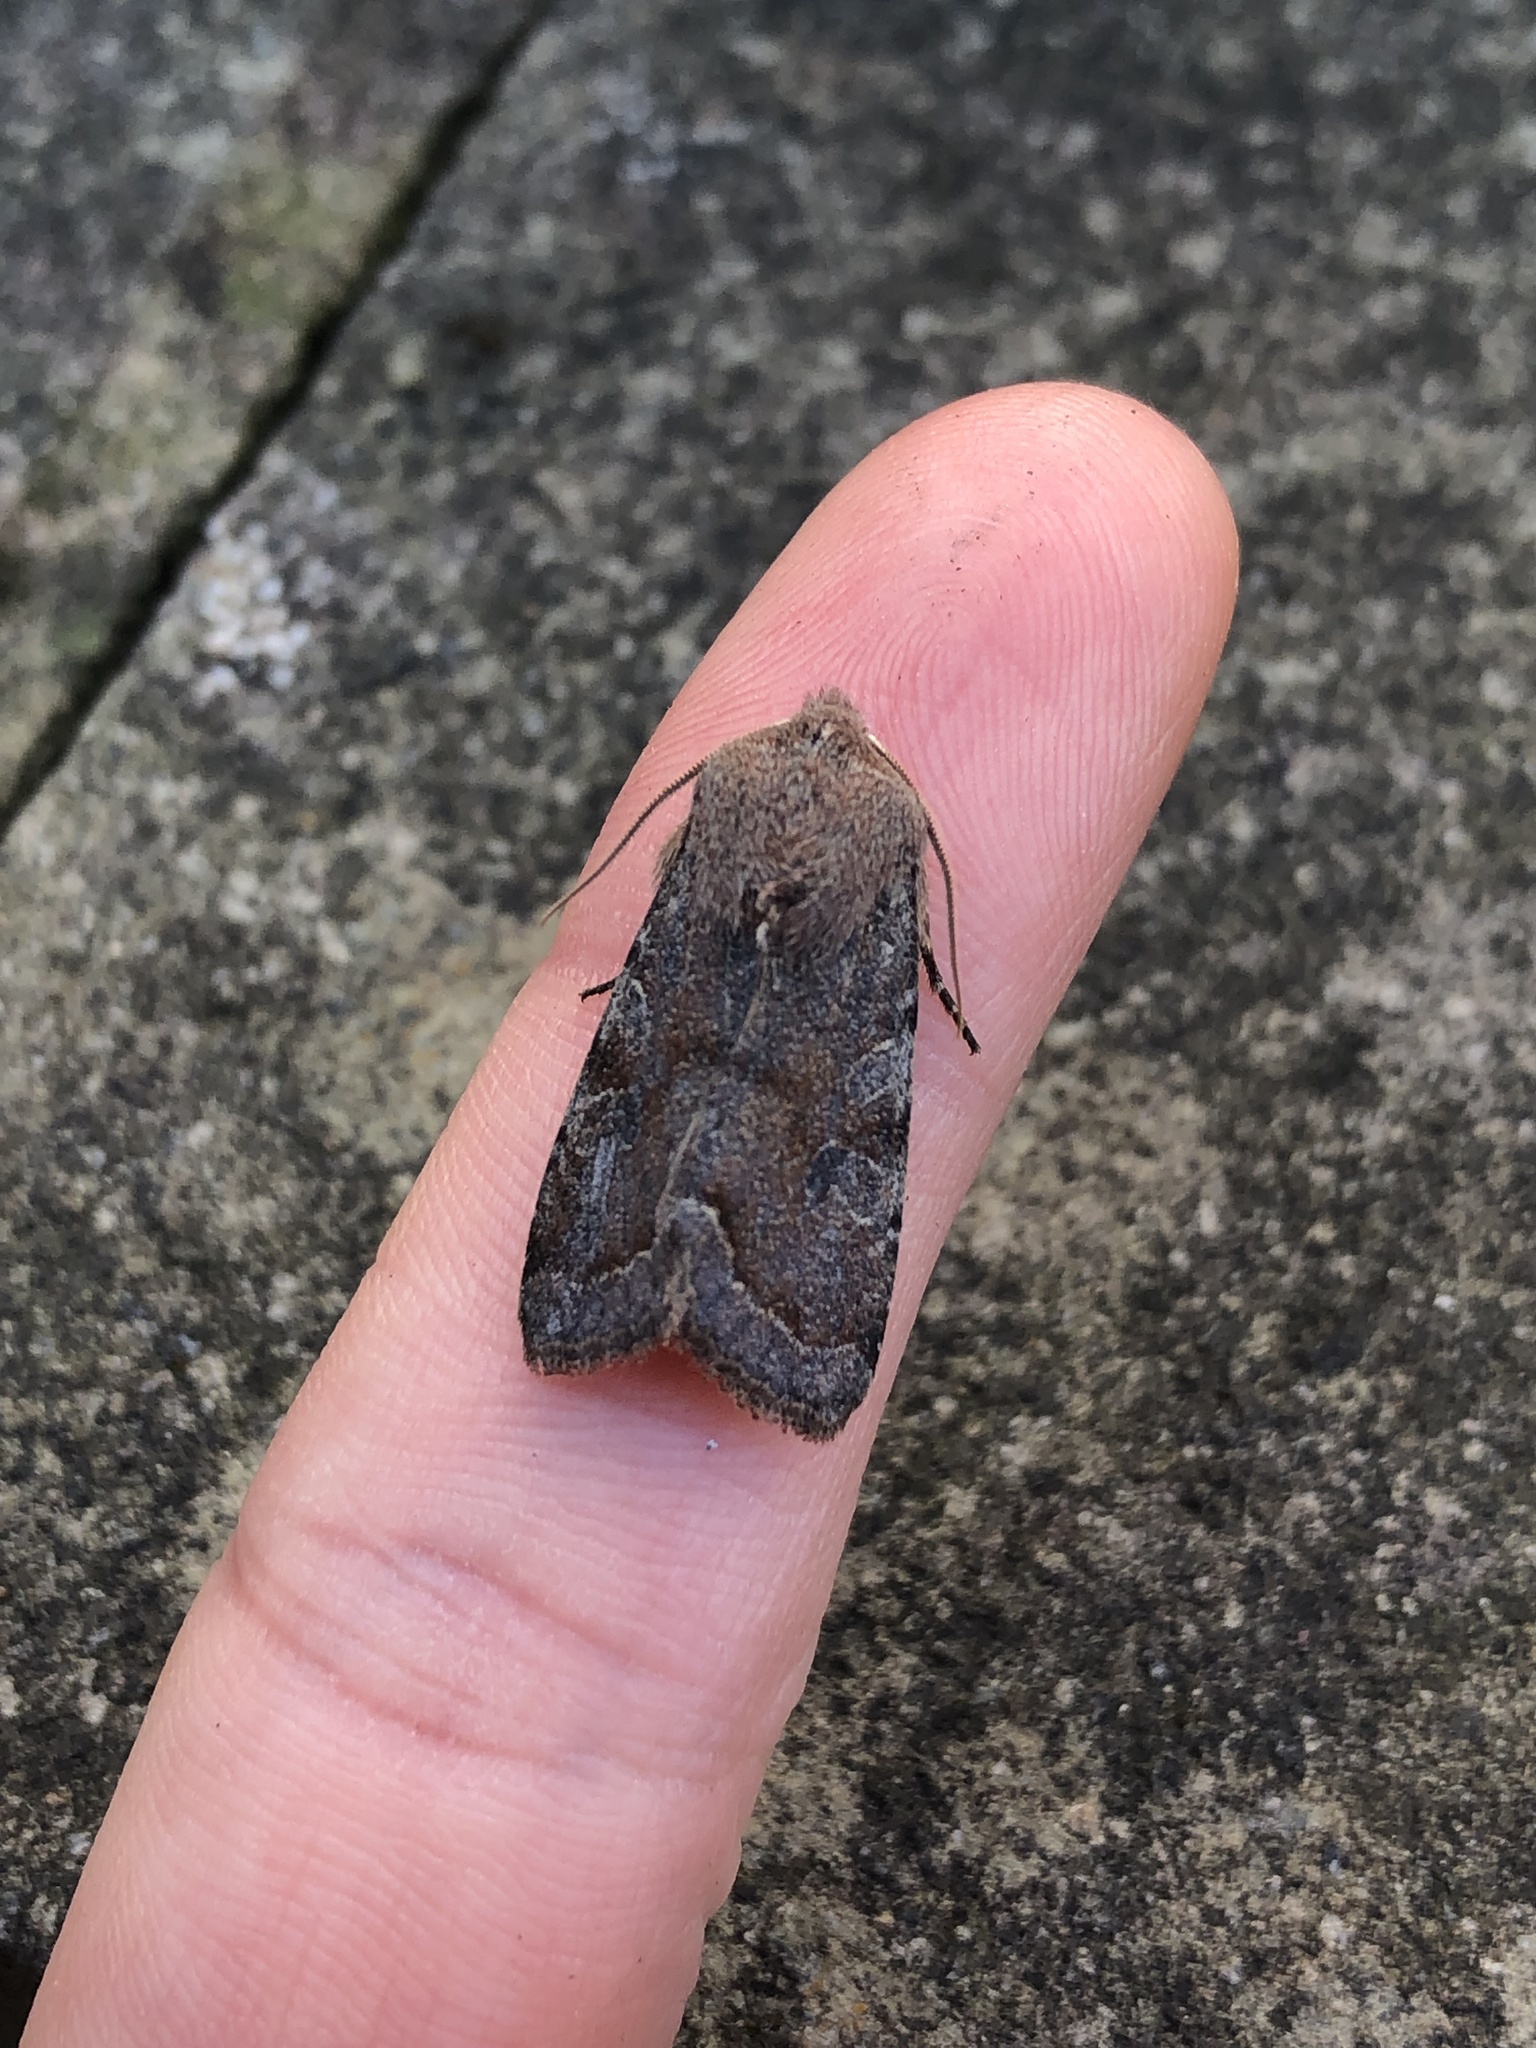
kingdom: Animalia
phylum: Arthropoda
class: Insecta
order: Lepidoptera
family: Noctuidae
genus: Orthosia
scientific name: Orthosia incerta
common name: Clouded drab
